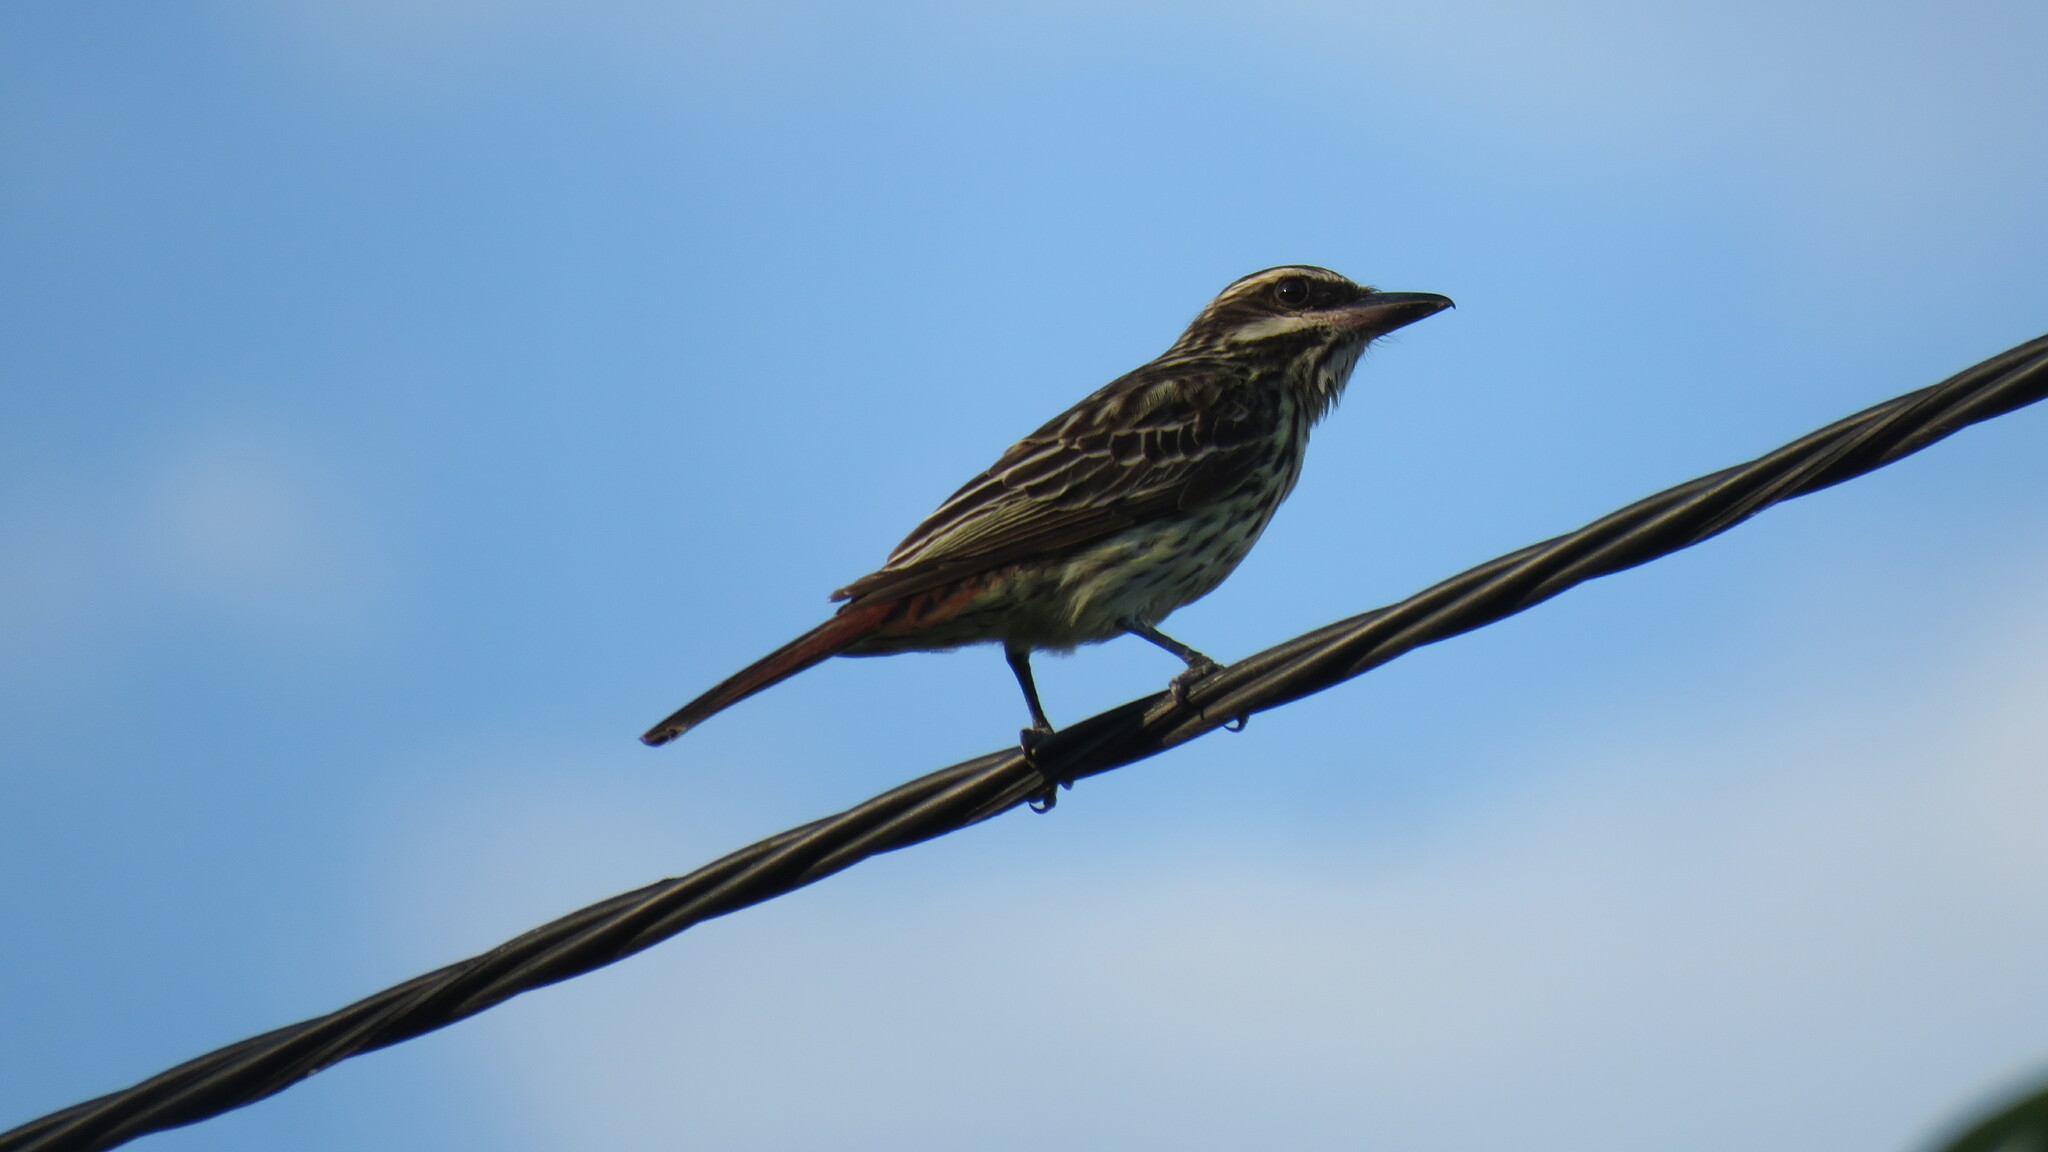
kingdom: Animalia
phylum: Chordata
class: Aves
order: Passeriformes
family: Tyrannidae
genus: Myiodynastes
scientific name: Myiodynastes maculatus
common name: Streaked flycatcher
